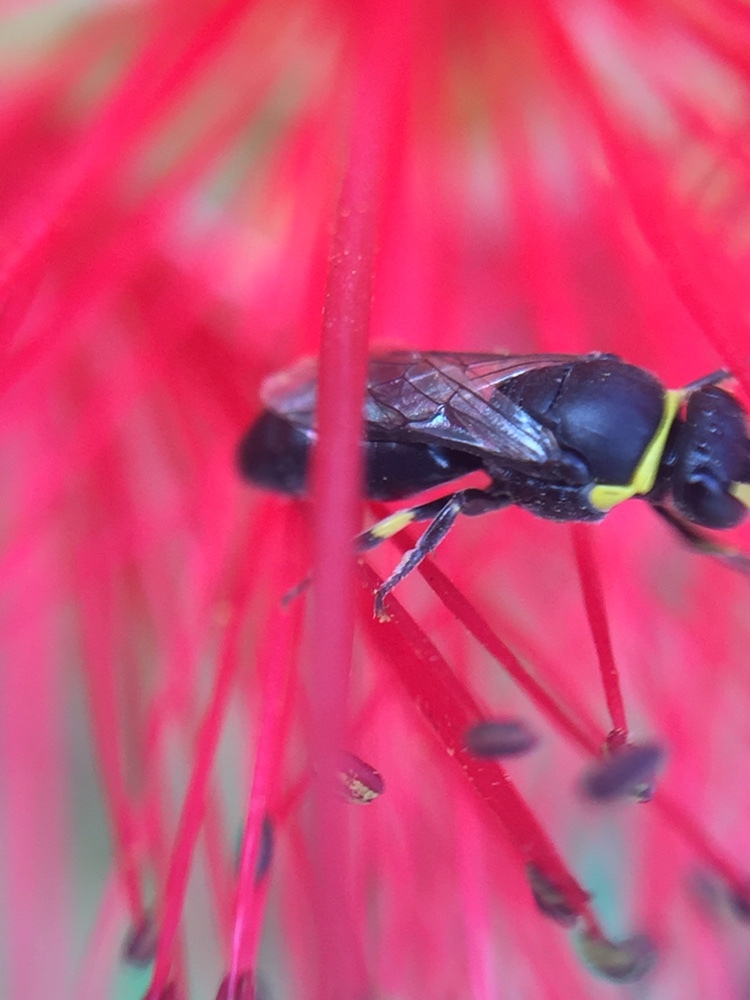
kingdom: Animalia
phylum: Arthropoda
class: Insecta
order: Hymenoptera
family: Colletidae
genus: Hylaeus
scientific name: Hylaeus euxanthus
